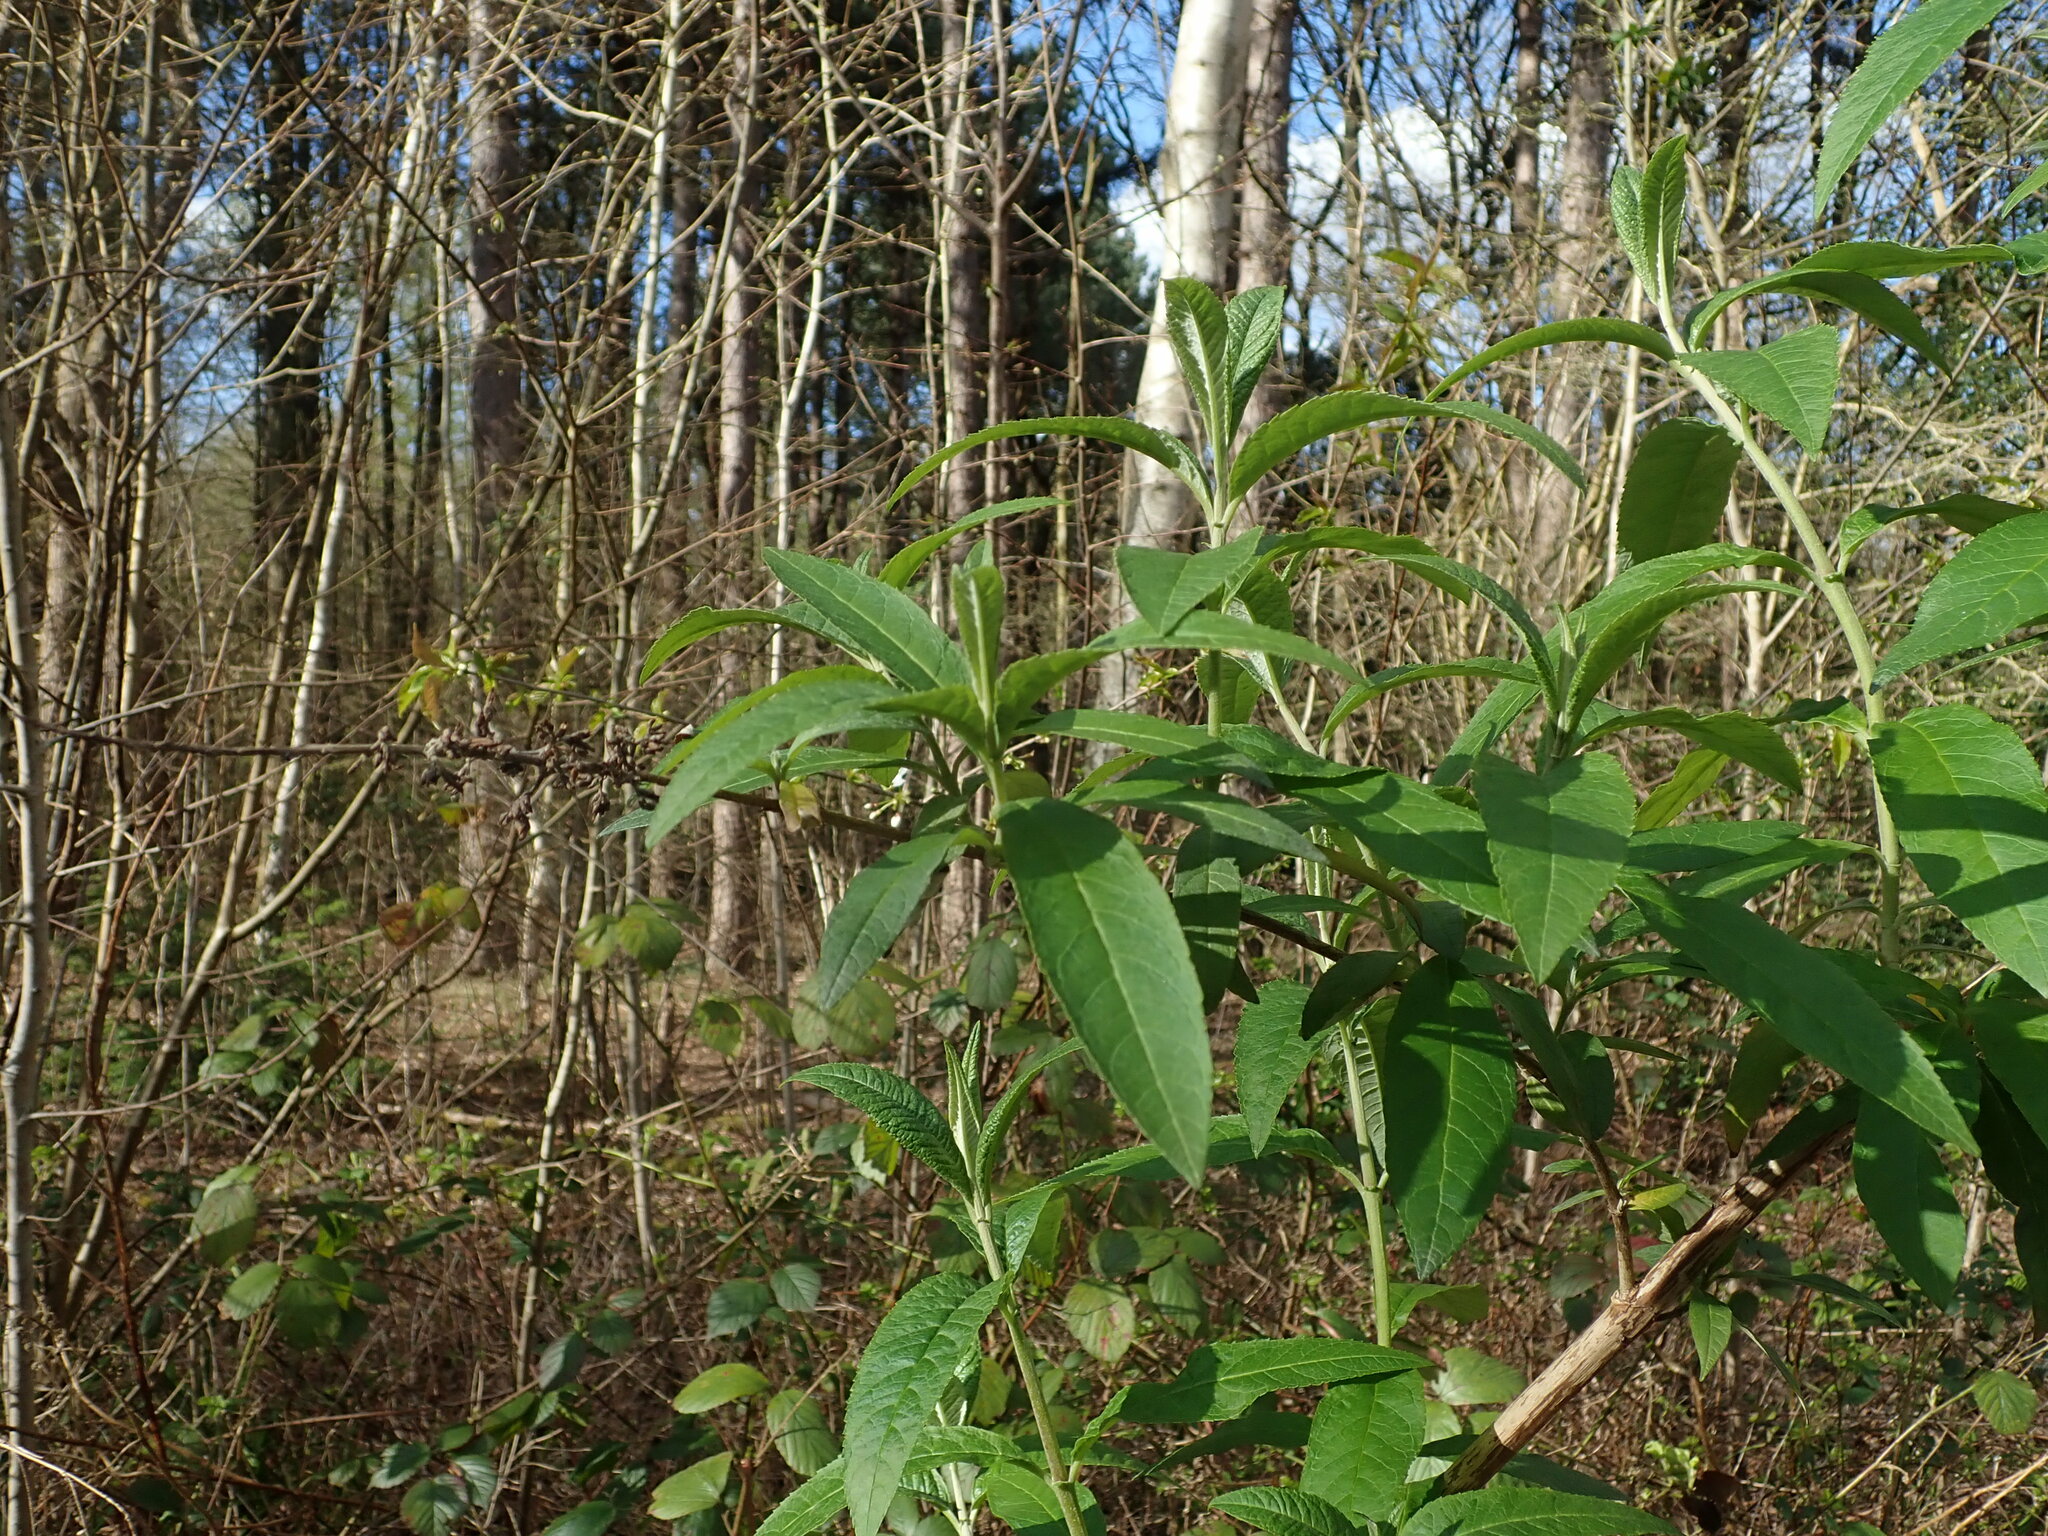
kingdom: Plantae
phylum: Tracheophyta
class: Magnoliopsida
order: Lamiales
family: Scrophulariaceae
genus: Buddleja
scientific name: Buddleja davidii
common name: Butterfly-bush
